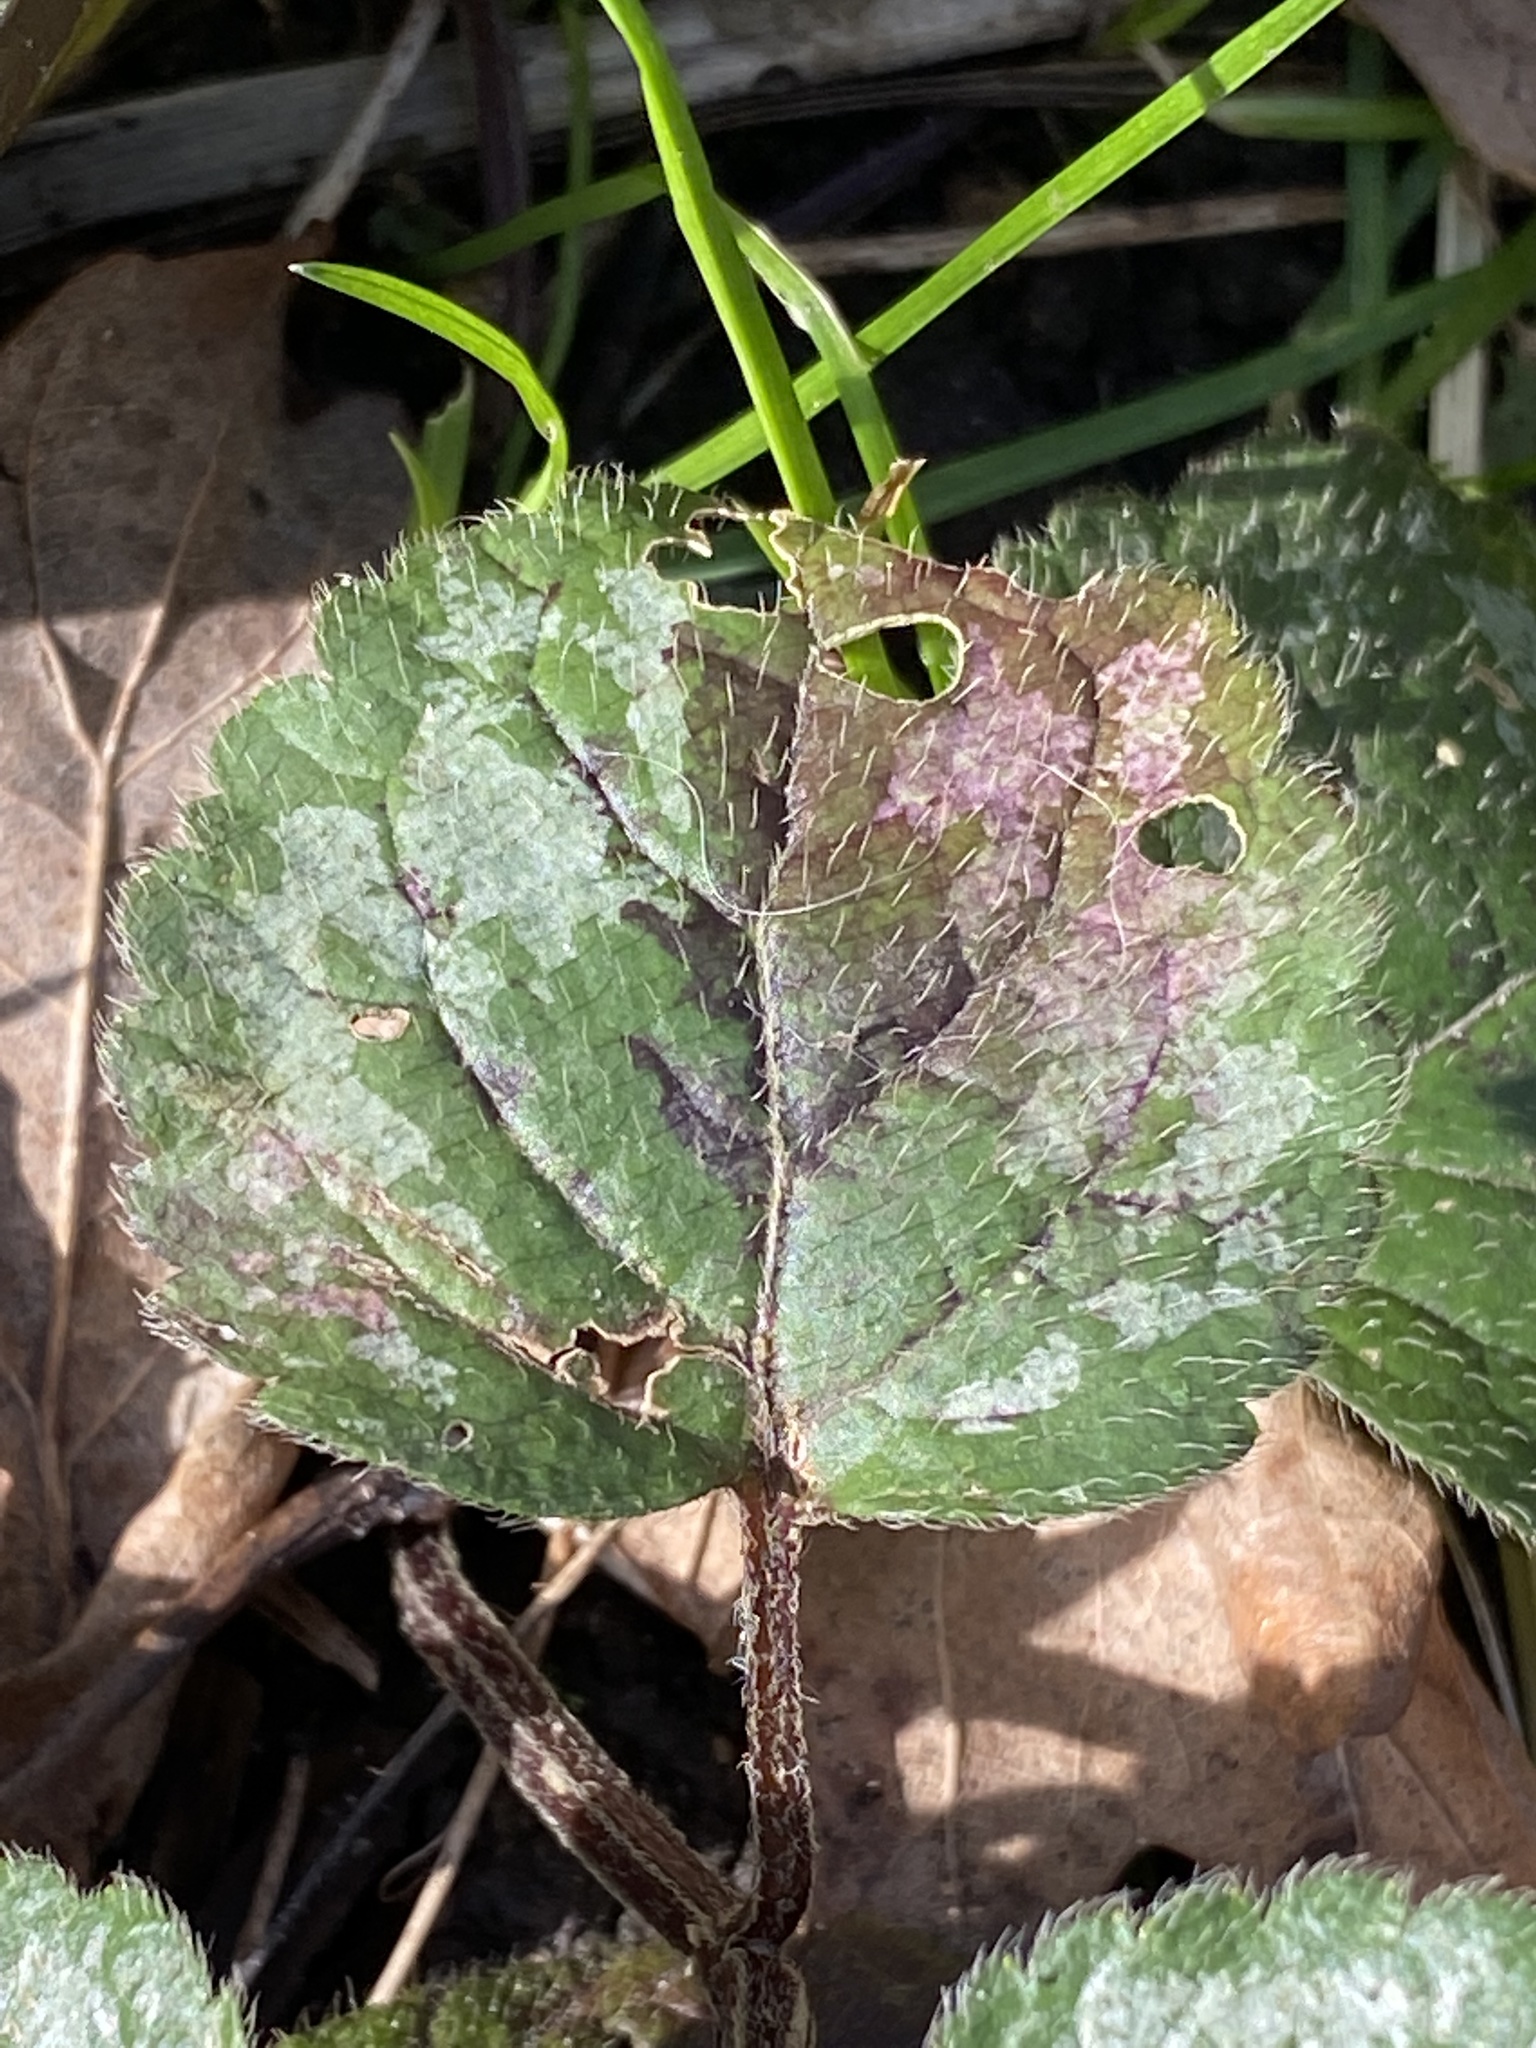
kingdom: Plantae
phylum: Tracheophyta
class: Magnoliopsida
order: Lamiales
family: Lamiaceae
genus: Lamium
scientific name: Lamium galeobdolon
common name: Yellow archangel
